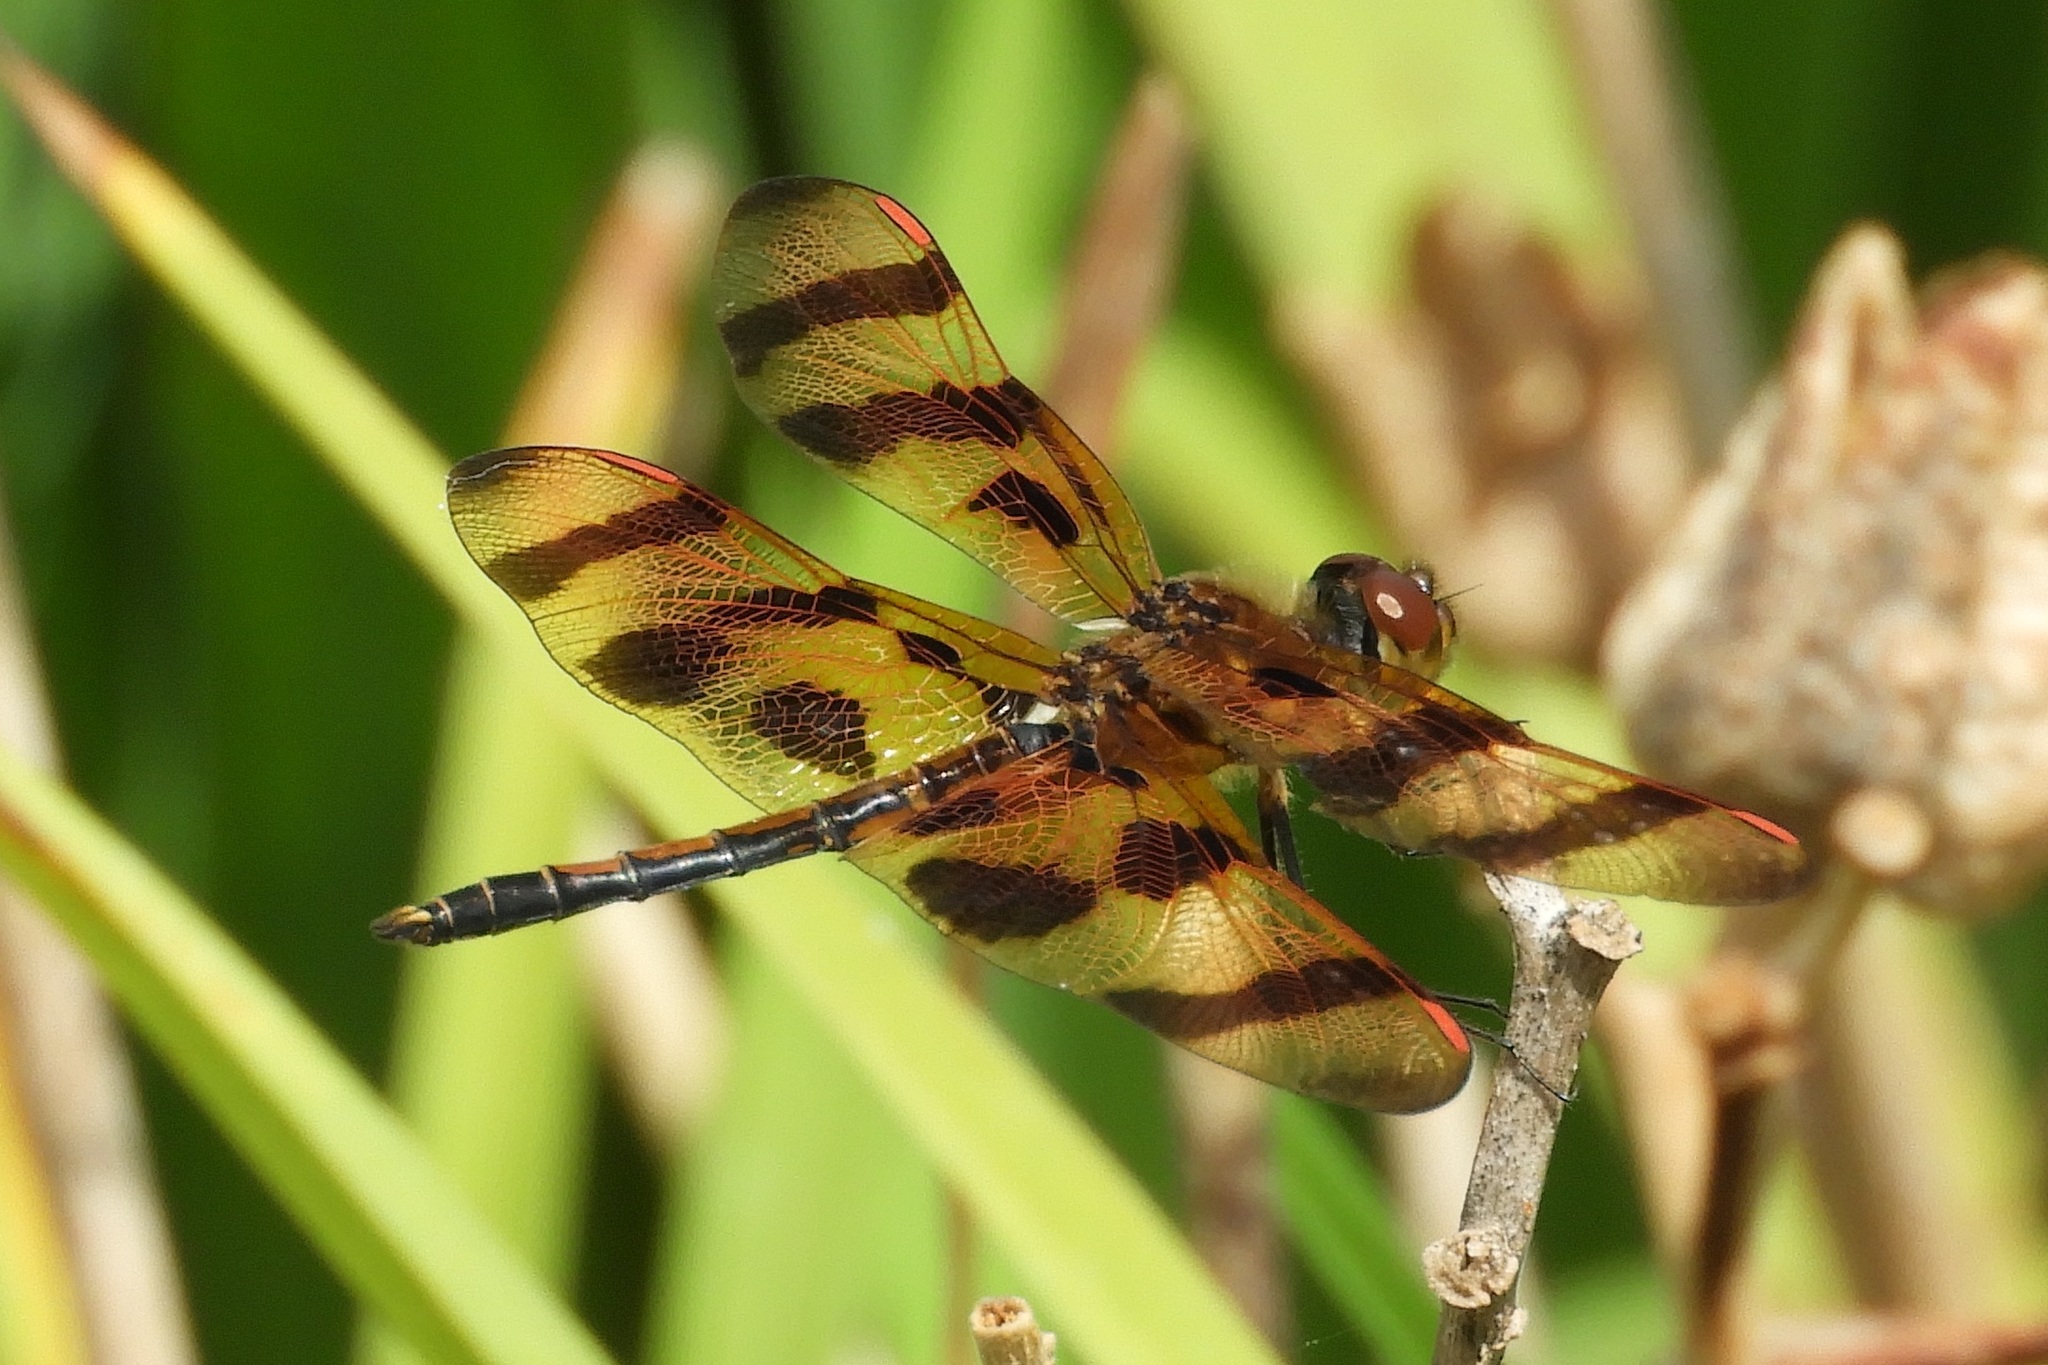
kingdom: Animalia
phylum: Arthropoda
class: Insecta
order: Odonata
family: Libellulidae
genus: Celithemis
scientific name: Celithemis eponina
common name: Halloween pennant
